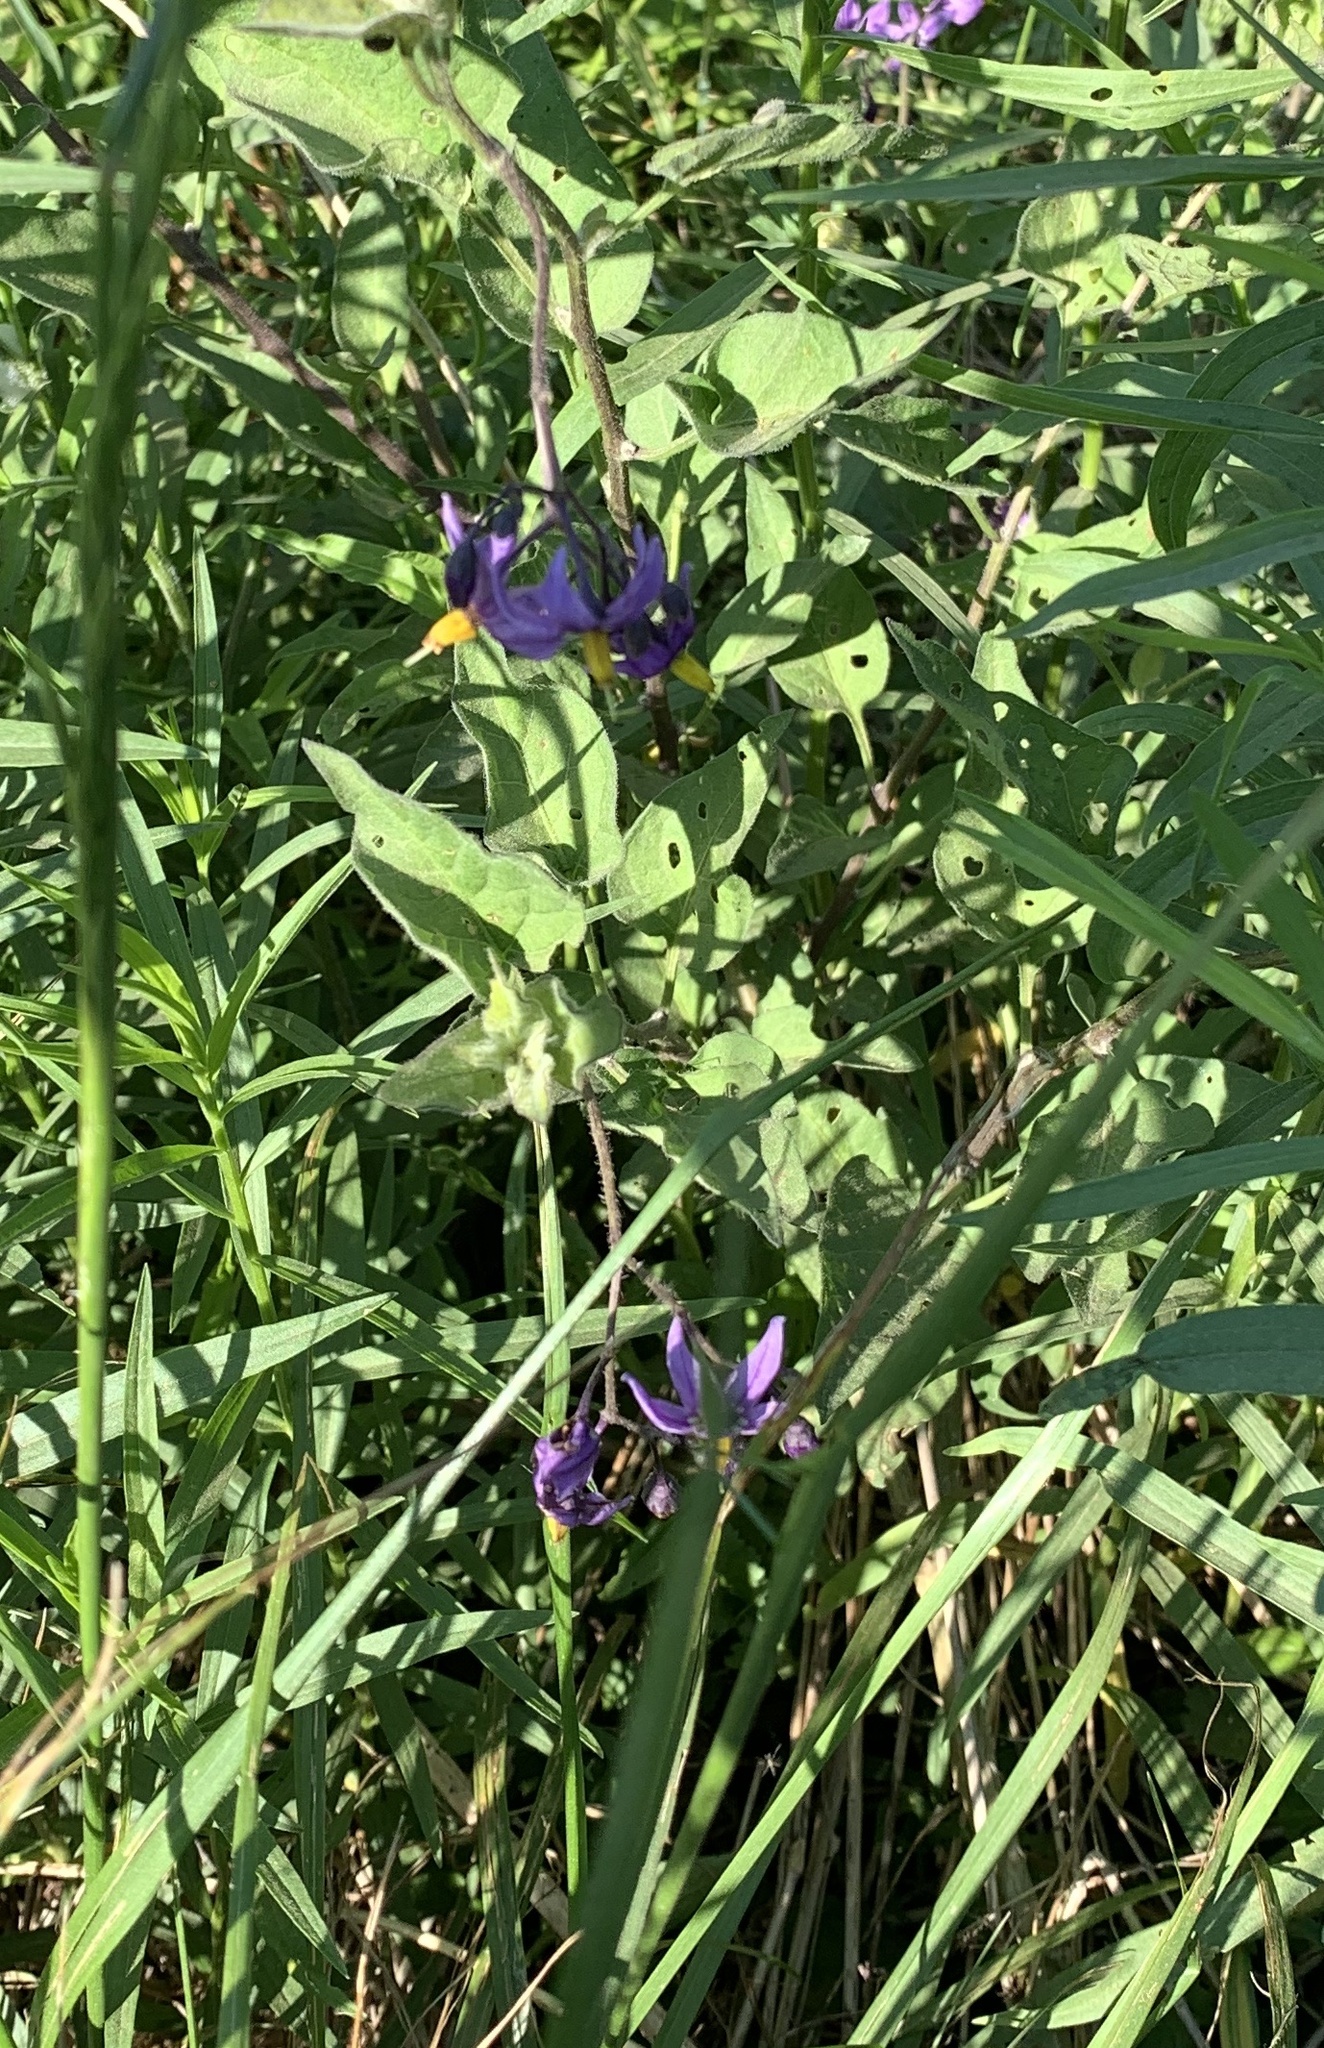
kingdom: Plantae
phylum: Tracheophyta
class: Magnoliopsida
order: Solanales
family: Solanaceae
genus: Solanum
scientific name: Solanum dulcamara
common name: Climbing nightshade
